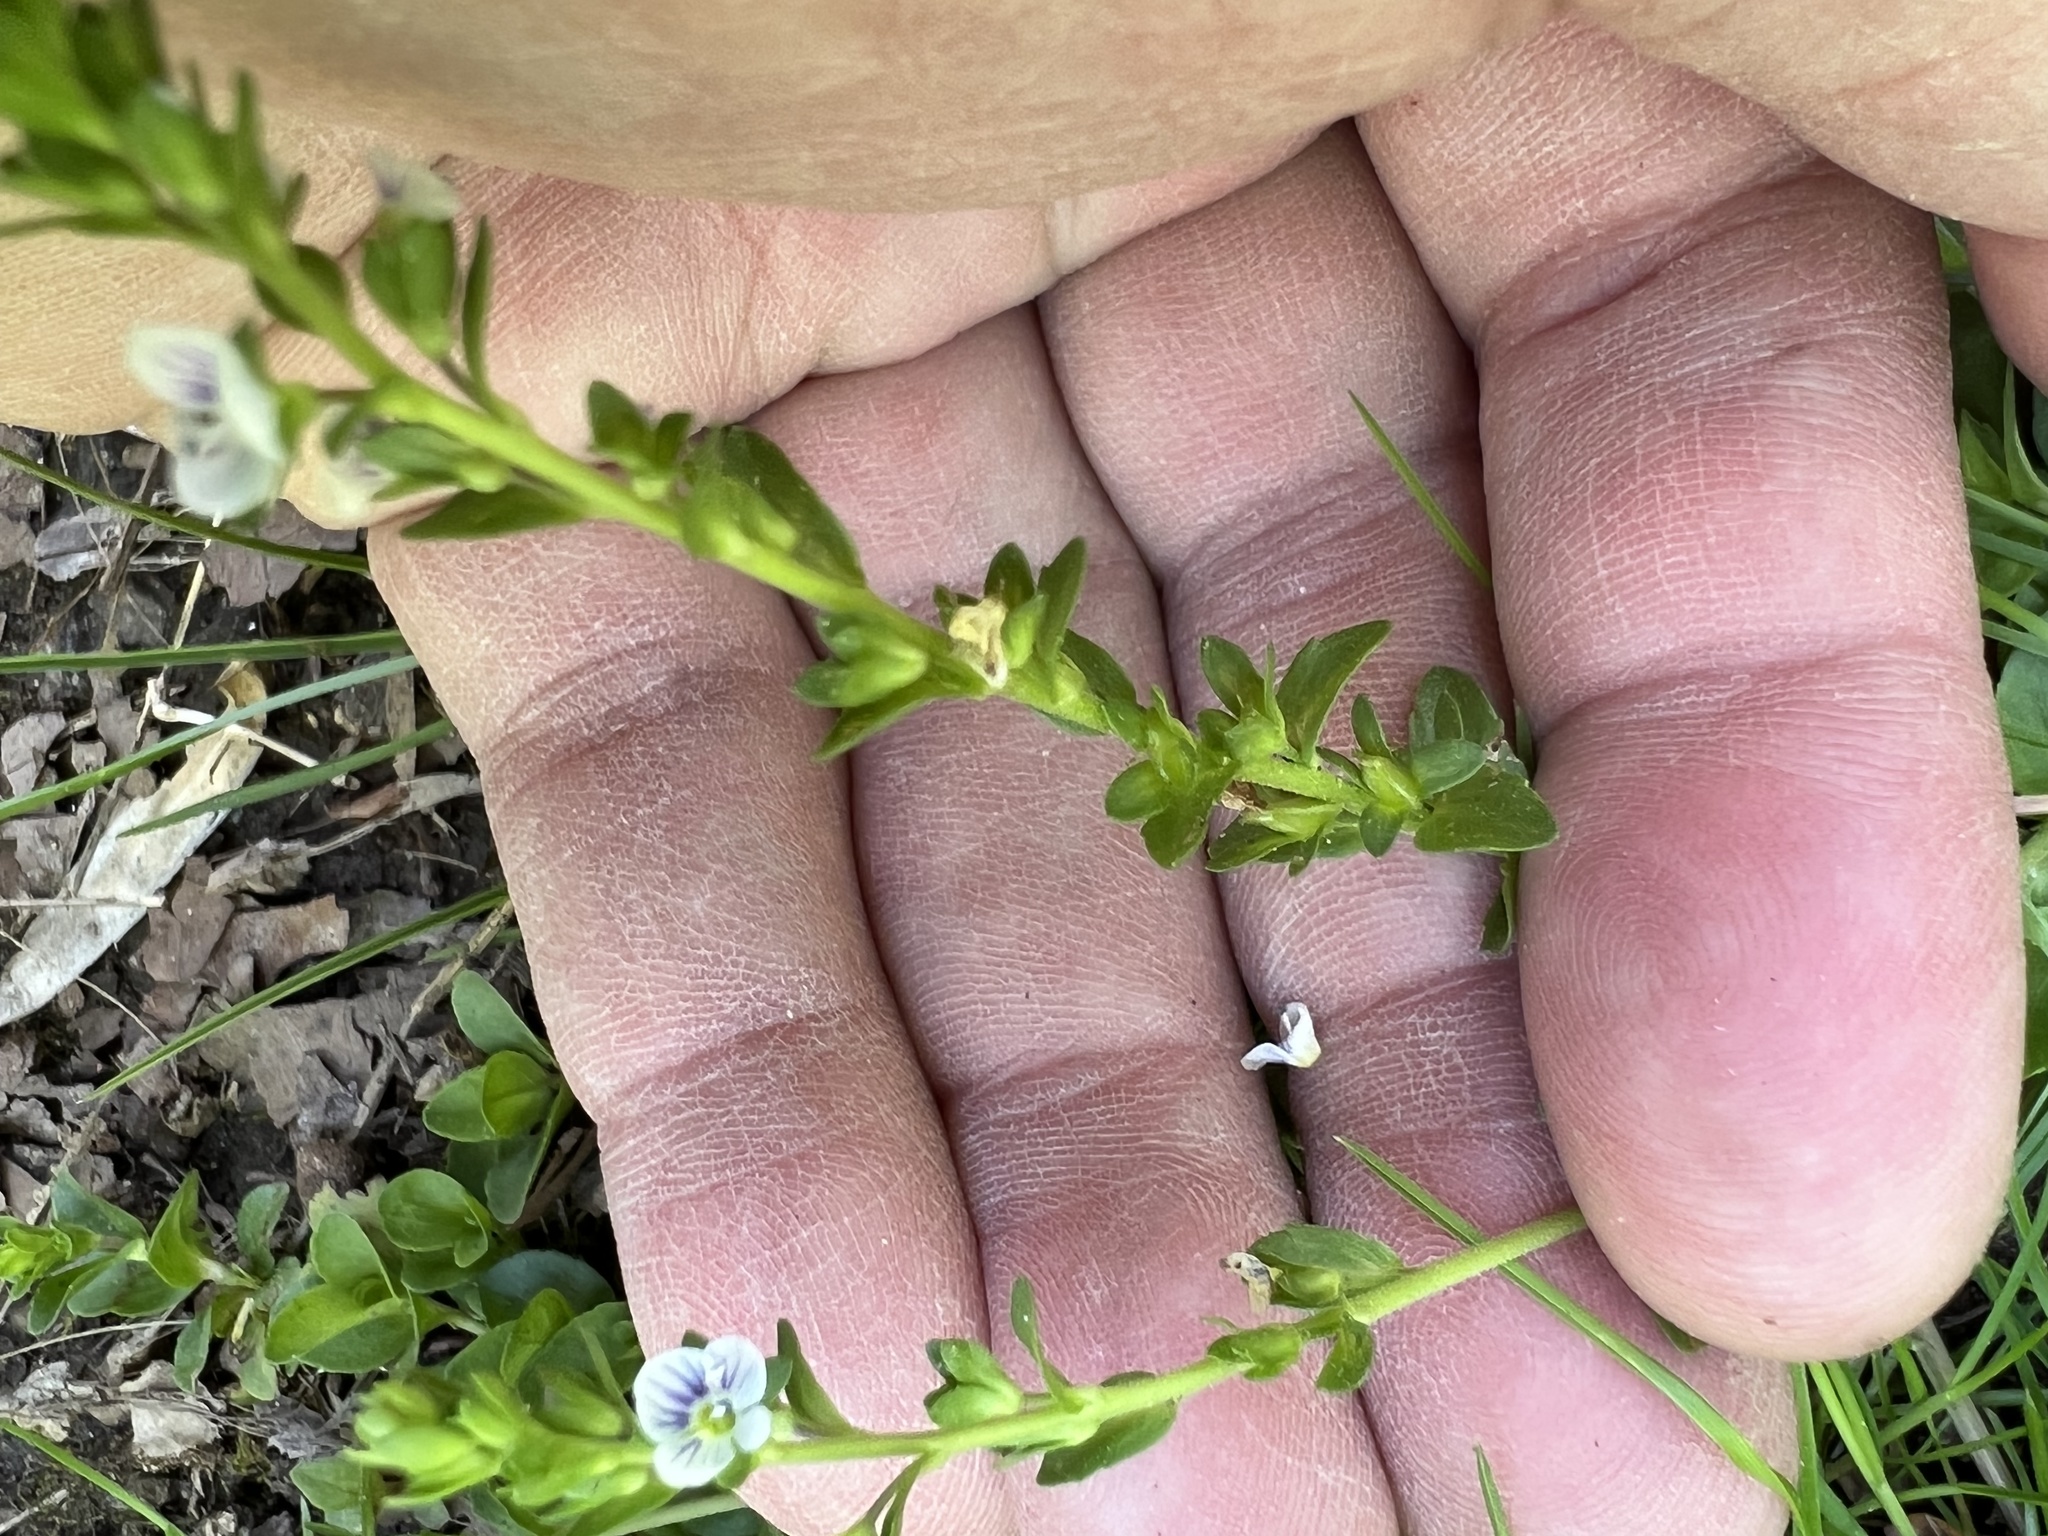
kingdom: Plantae
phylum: Tracheophyta
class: Magnoliopsida
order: Lamiales
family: Plantaginaceae
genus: Veronica
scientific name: Veronica serpyllifolia
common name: Thyme-leaved speedwell
